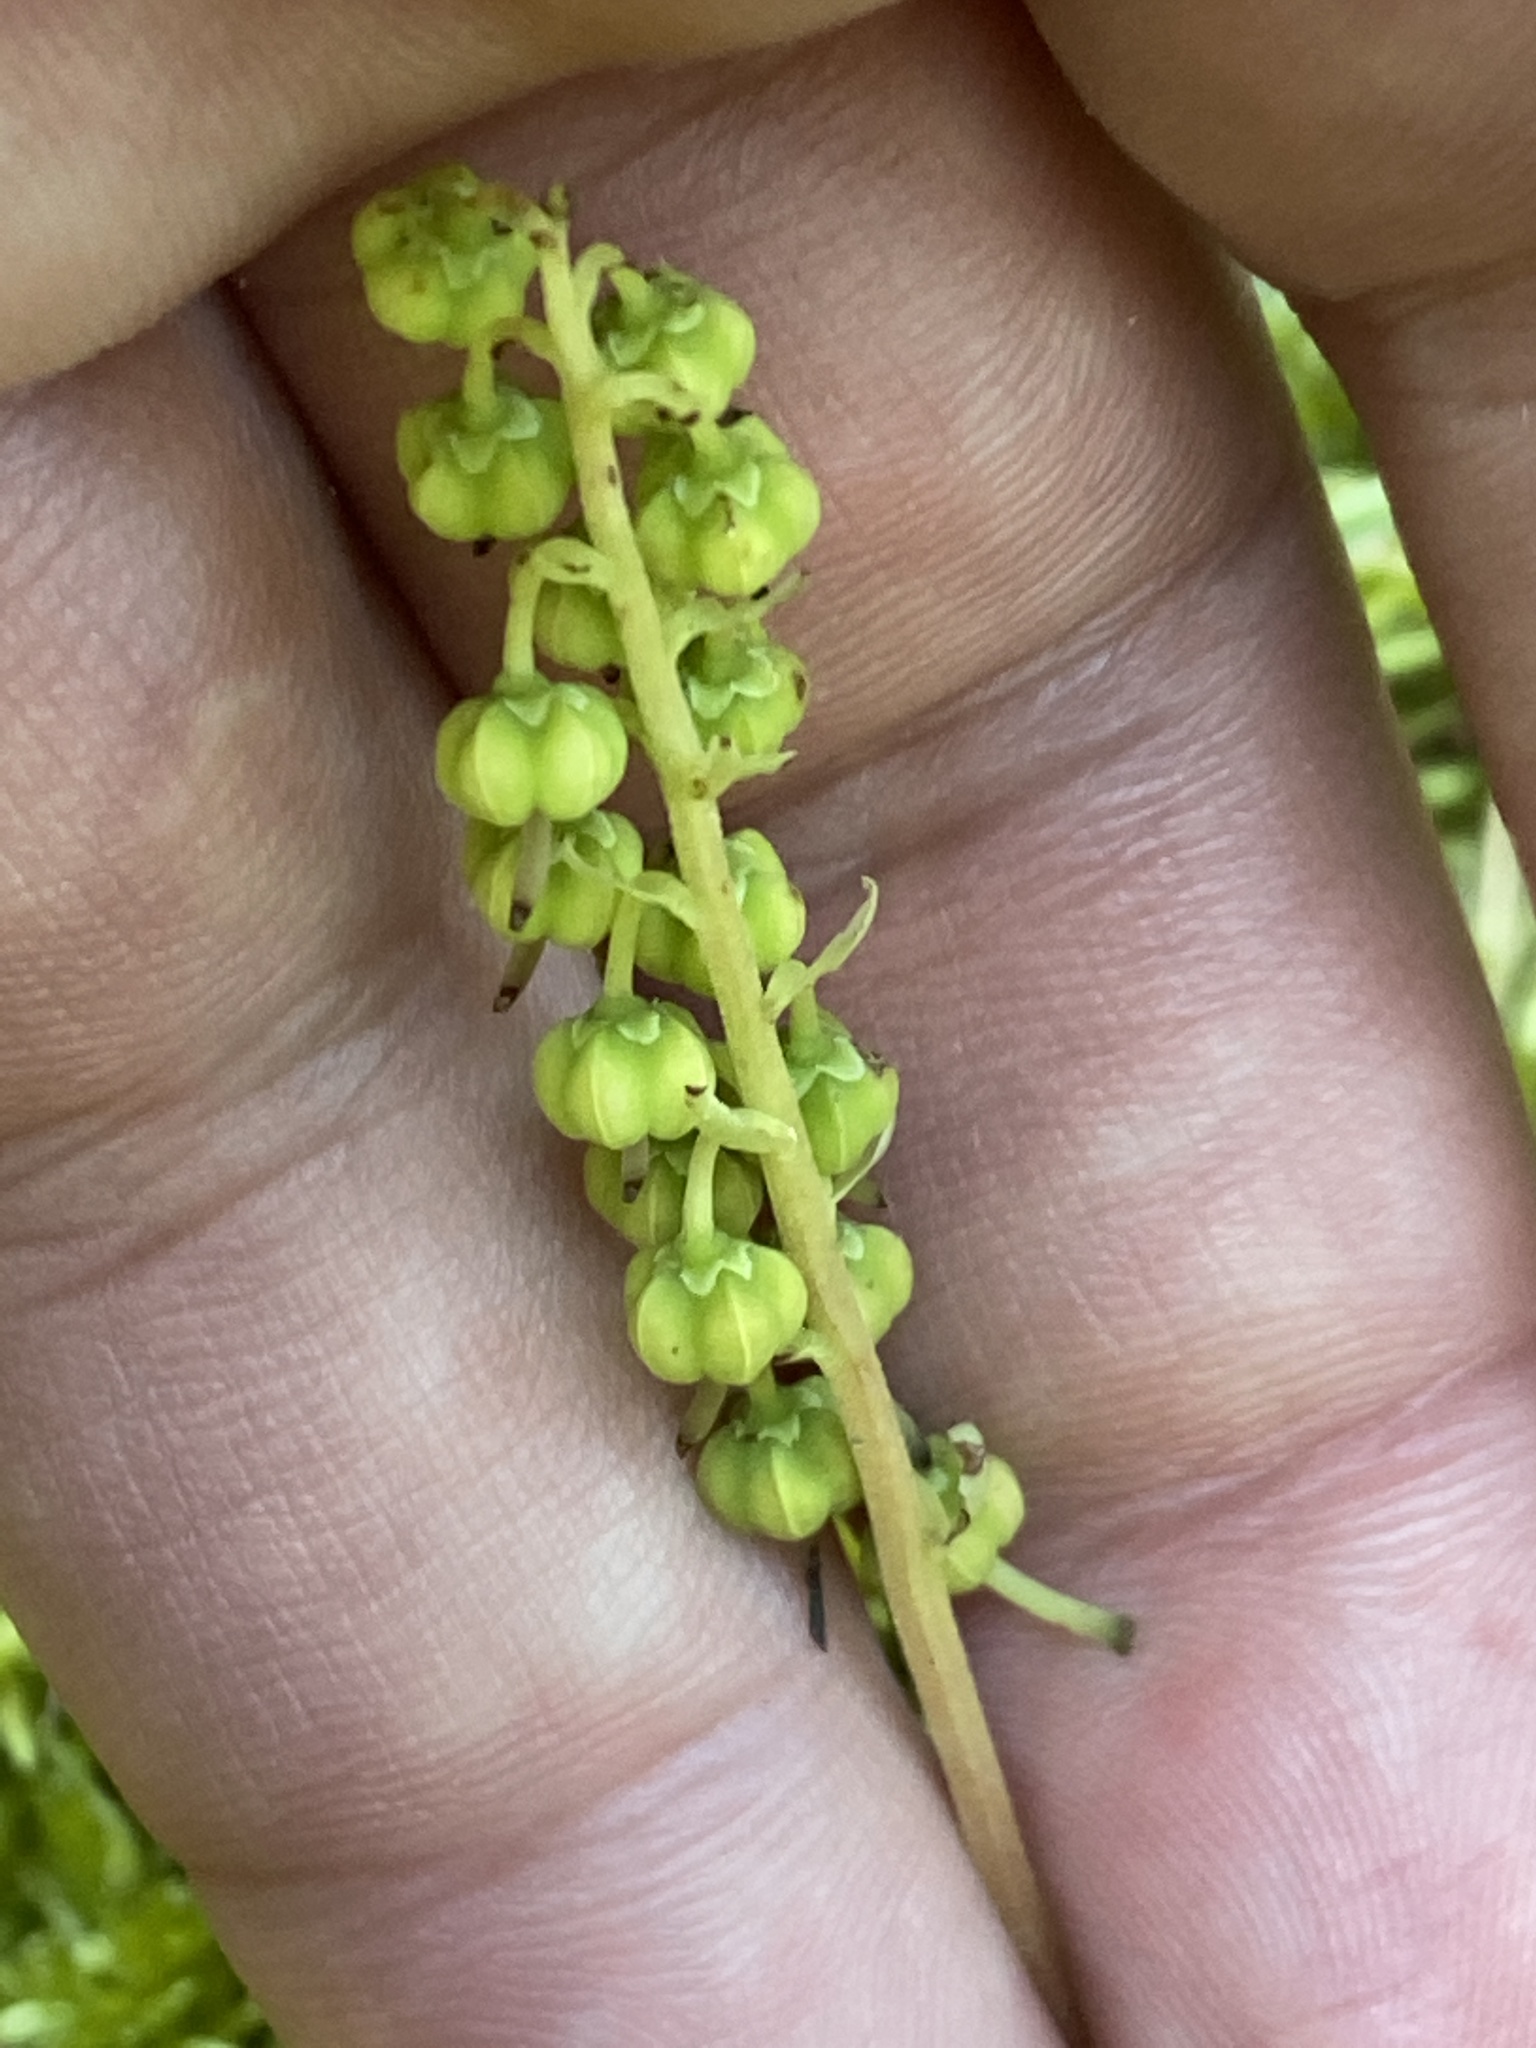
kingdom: Plantae
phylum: Tracheophyta
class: Magnoliopsida
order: Ericales
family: Ericaceae
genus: Orthilia
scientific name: Orthilia secunda
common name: One-sided orthilia
